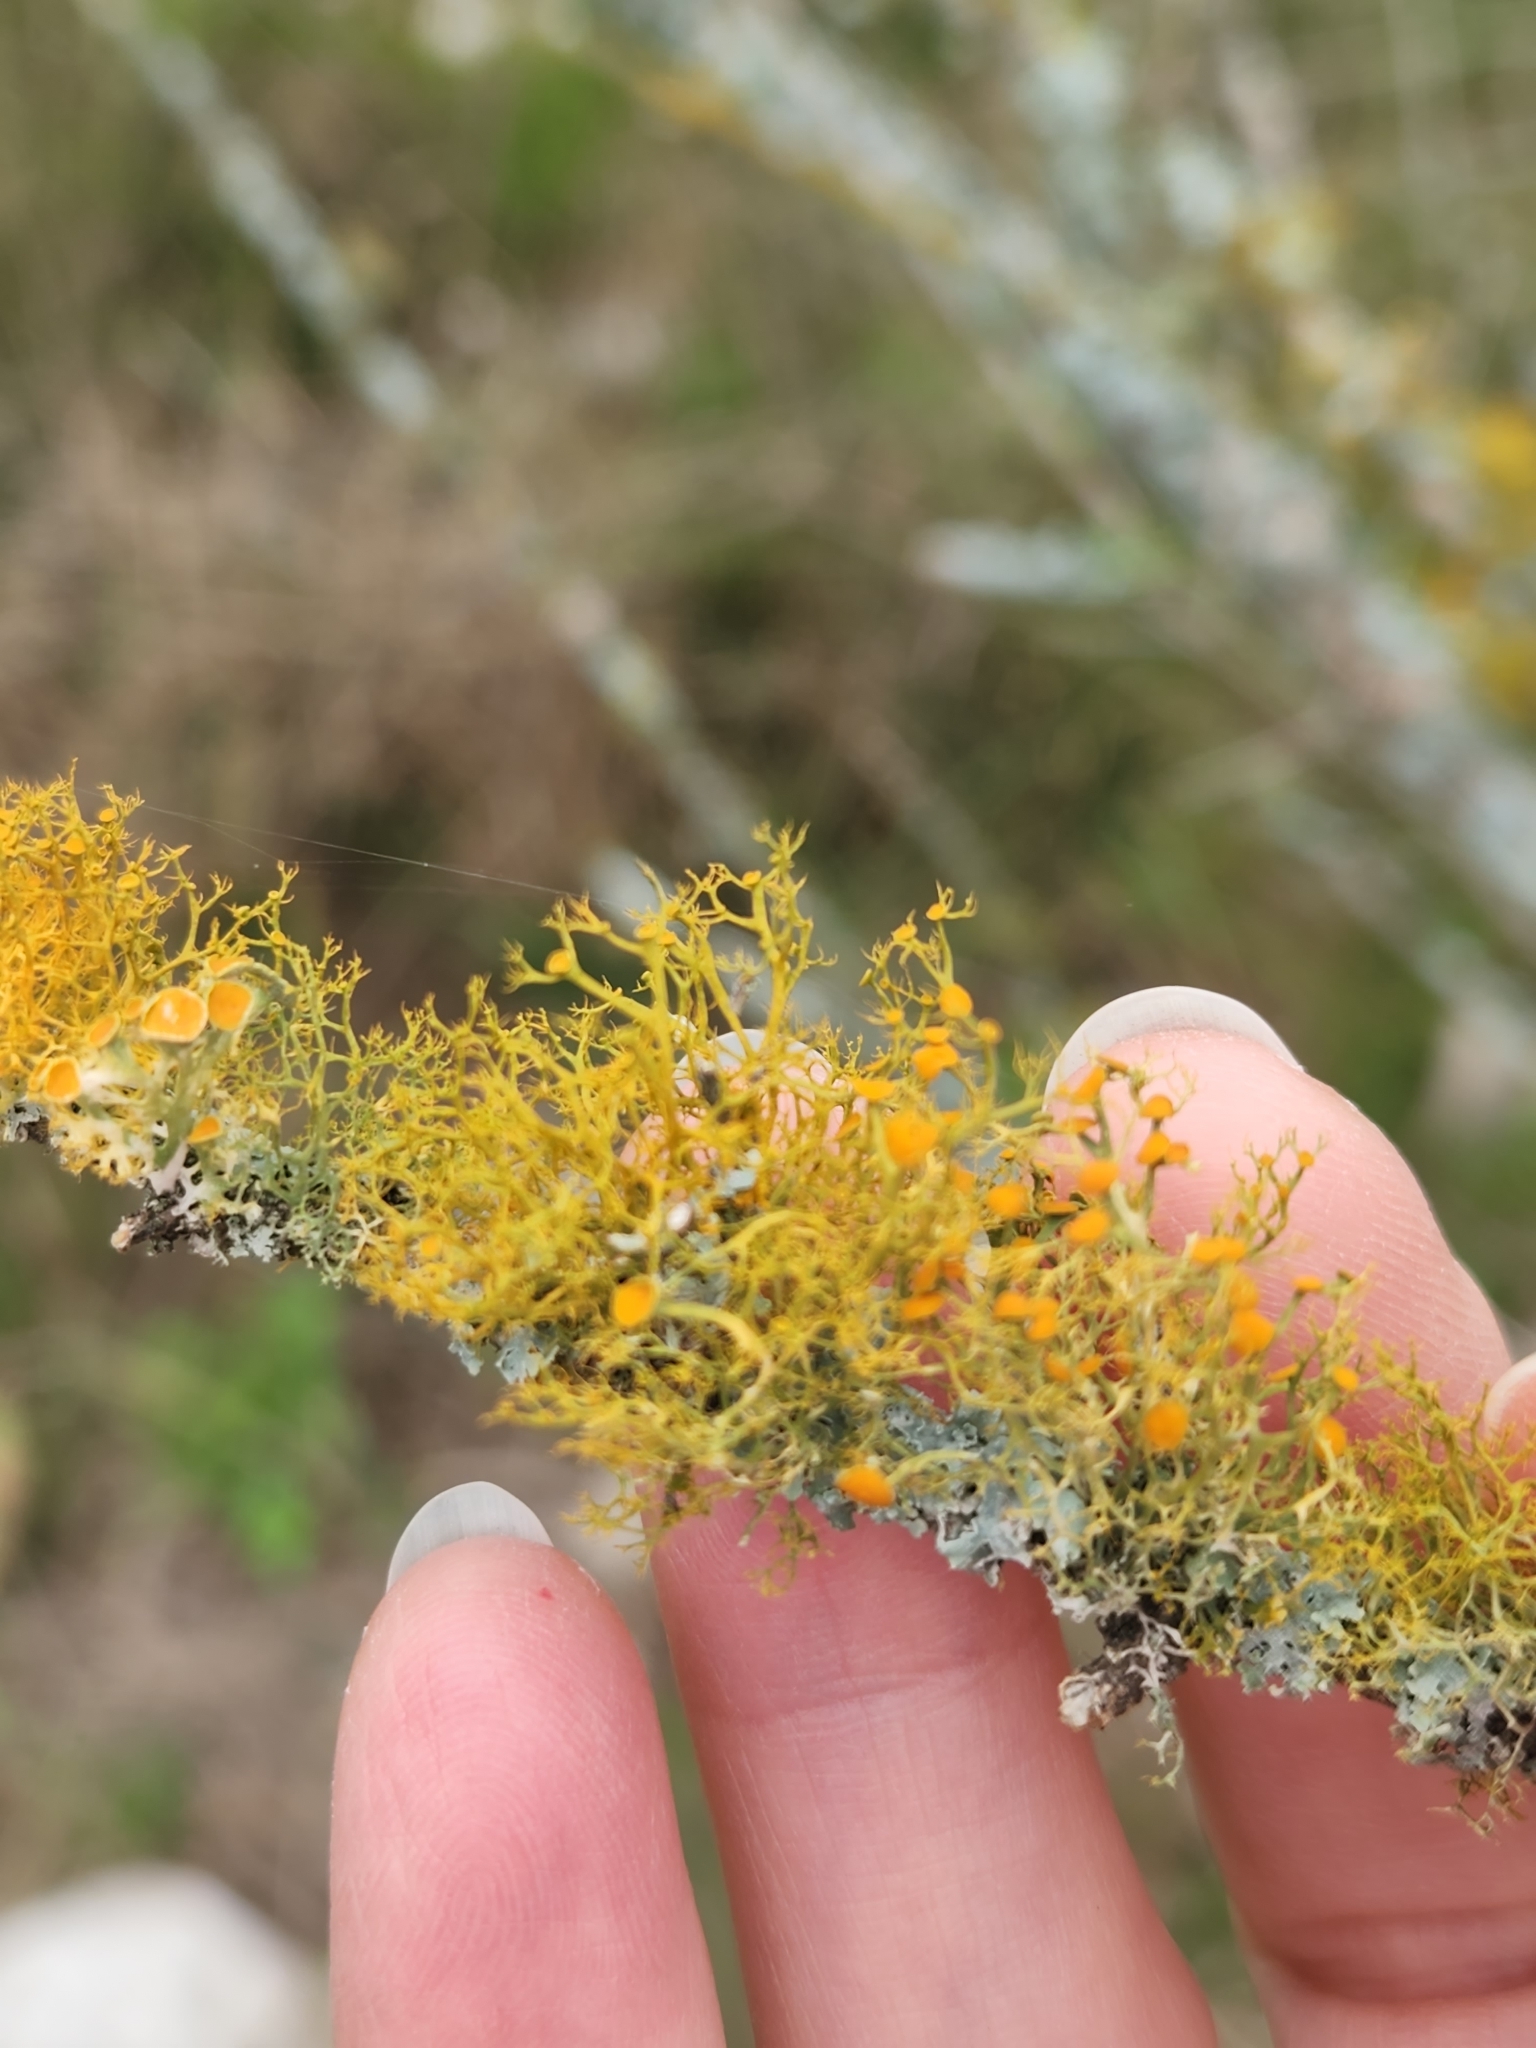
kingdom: Fungi
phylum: Ascomycota
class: Lecanoromycetes
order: Teloschistales
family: Teloschistaceae
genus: Teloschistes
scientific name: Teloschistes exilis
